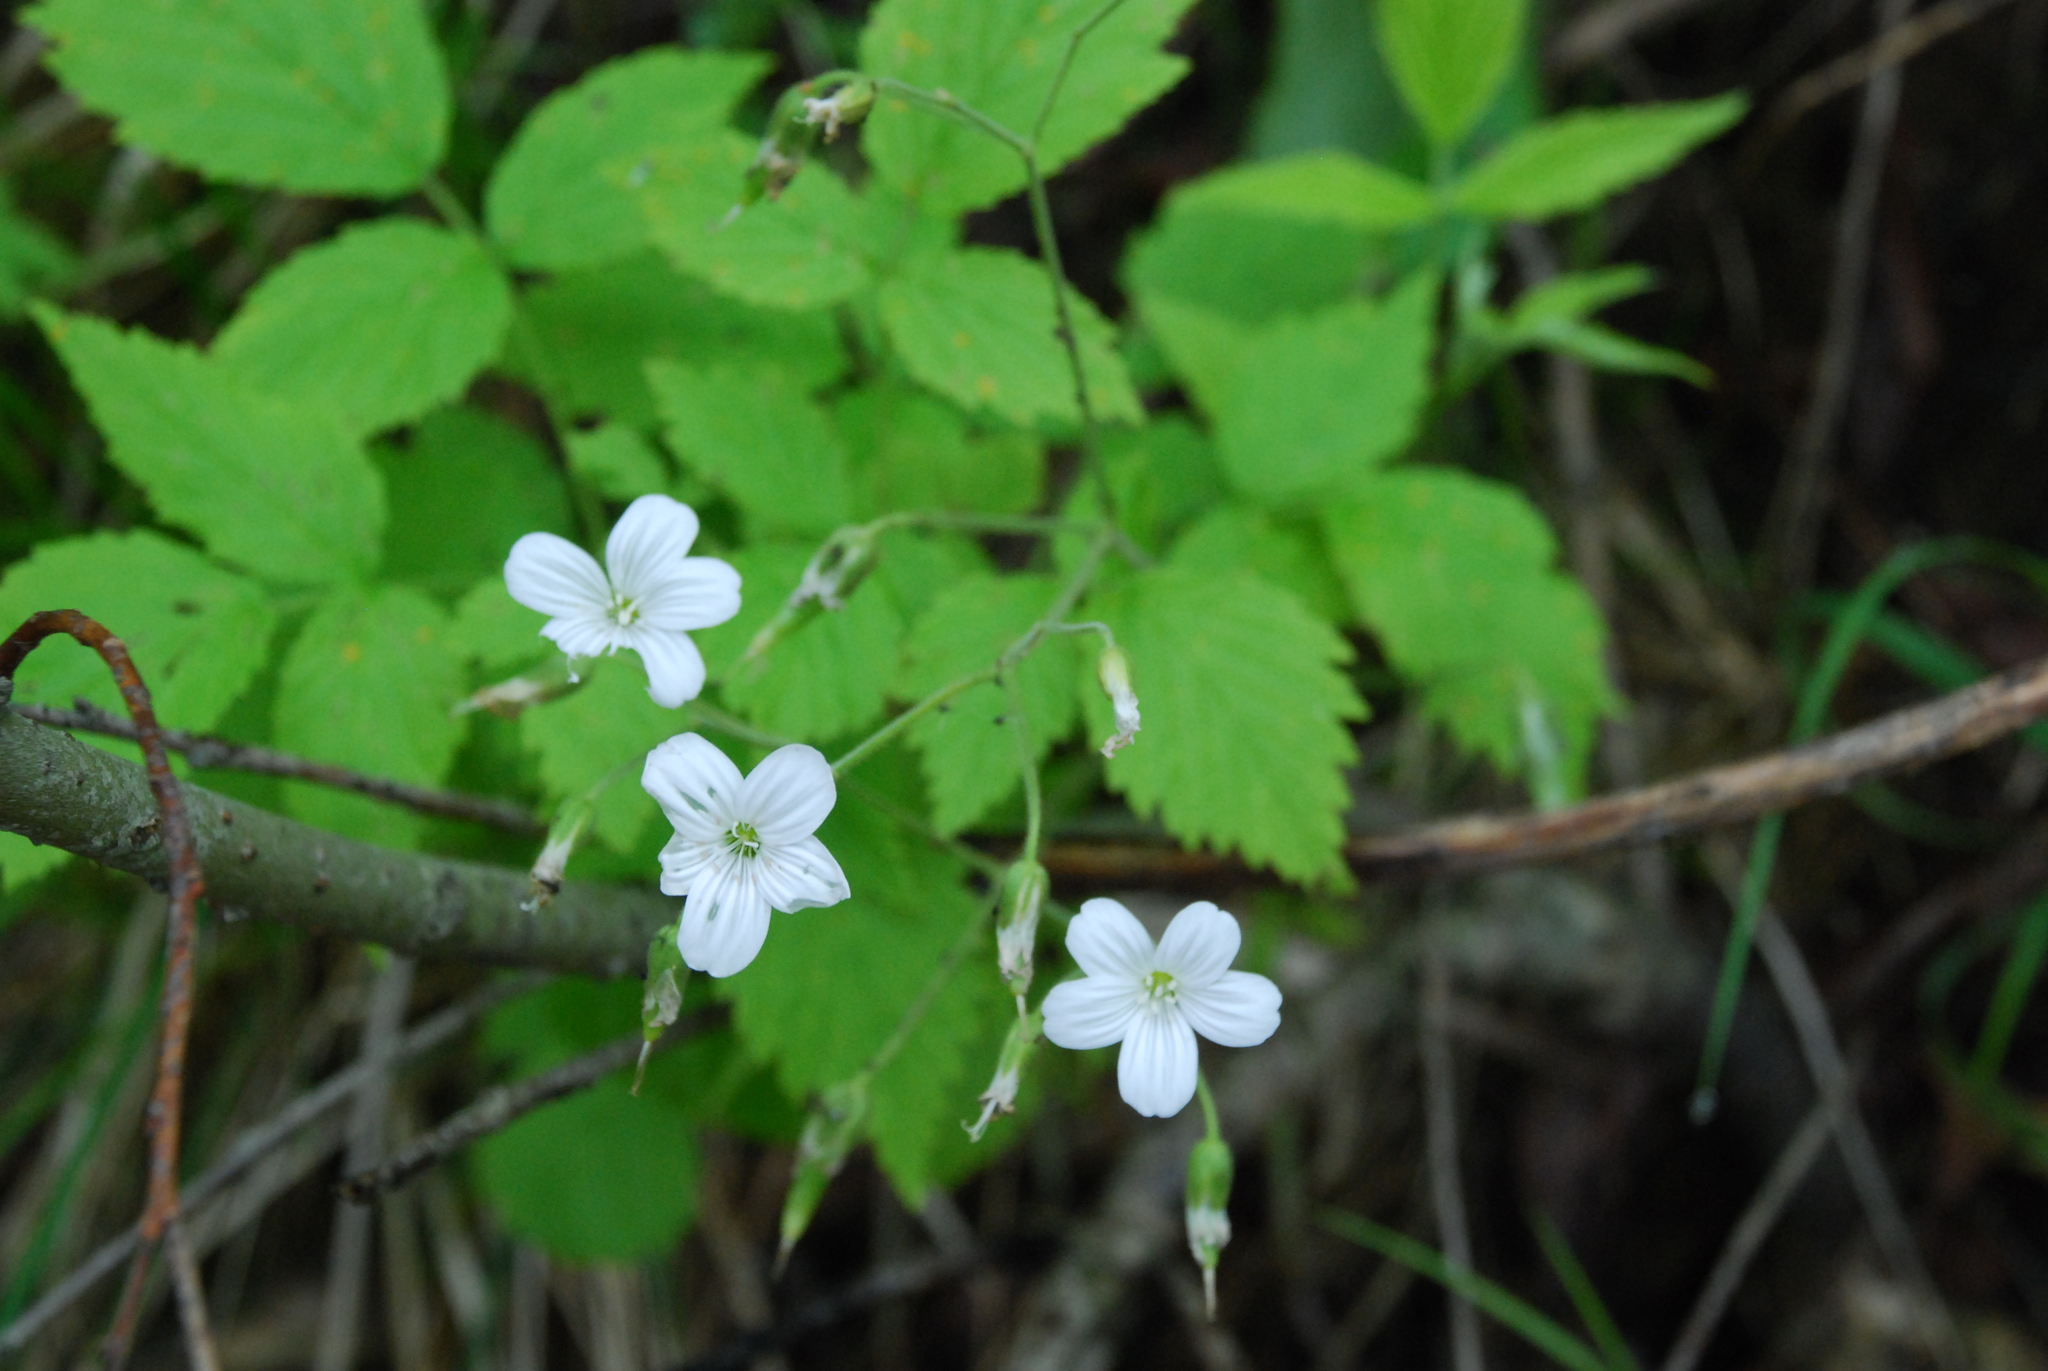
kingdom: Plantae
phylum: Tracheophyta
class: Magnoliopsida
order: Caryophyllales
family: Caryophyllaceae
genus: Cerastium
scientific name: Cerastium pauciflorum
